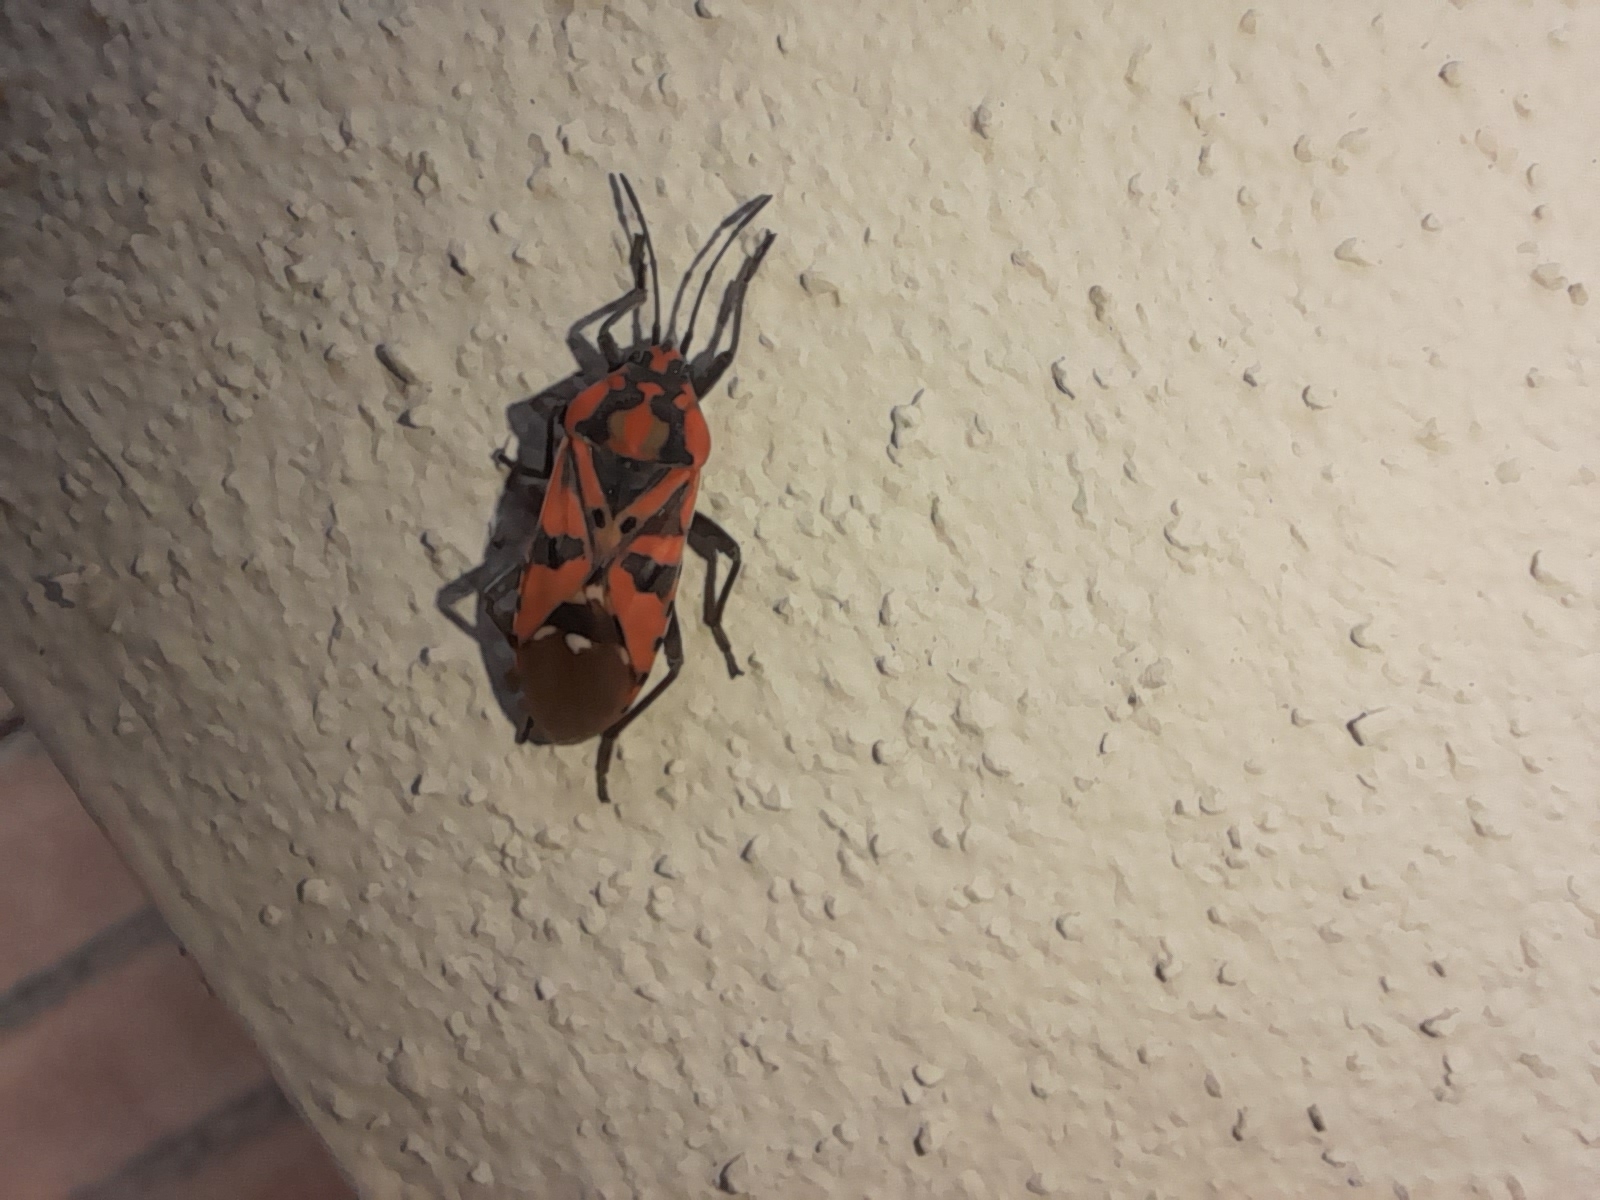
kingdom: Animalia
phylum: Arthropoda
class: Insecta
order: Hemiptera
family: Lygaeidae
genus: Spilostethus
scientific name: Spilostethus pandurus
